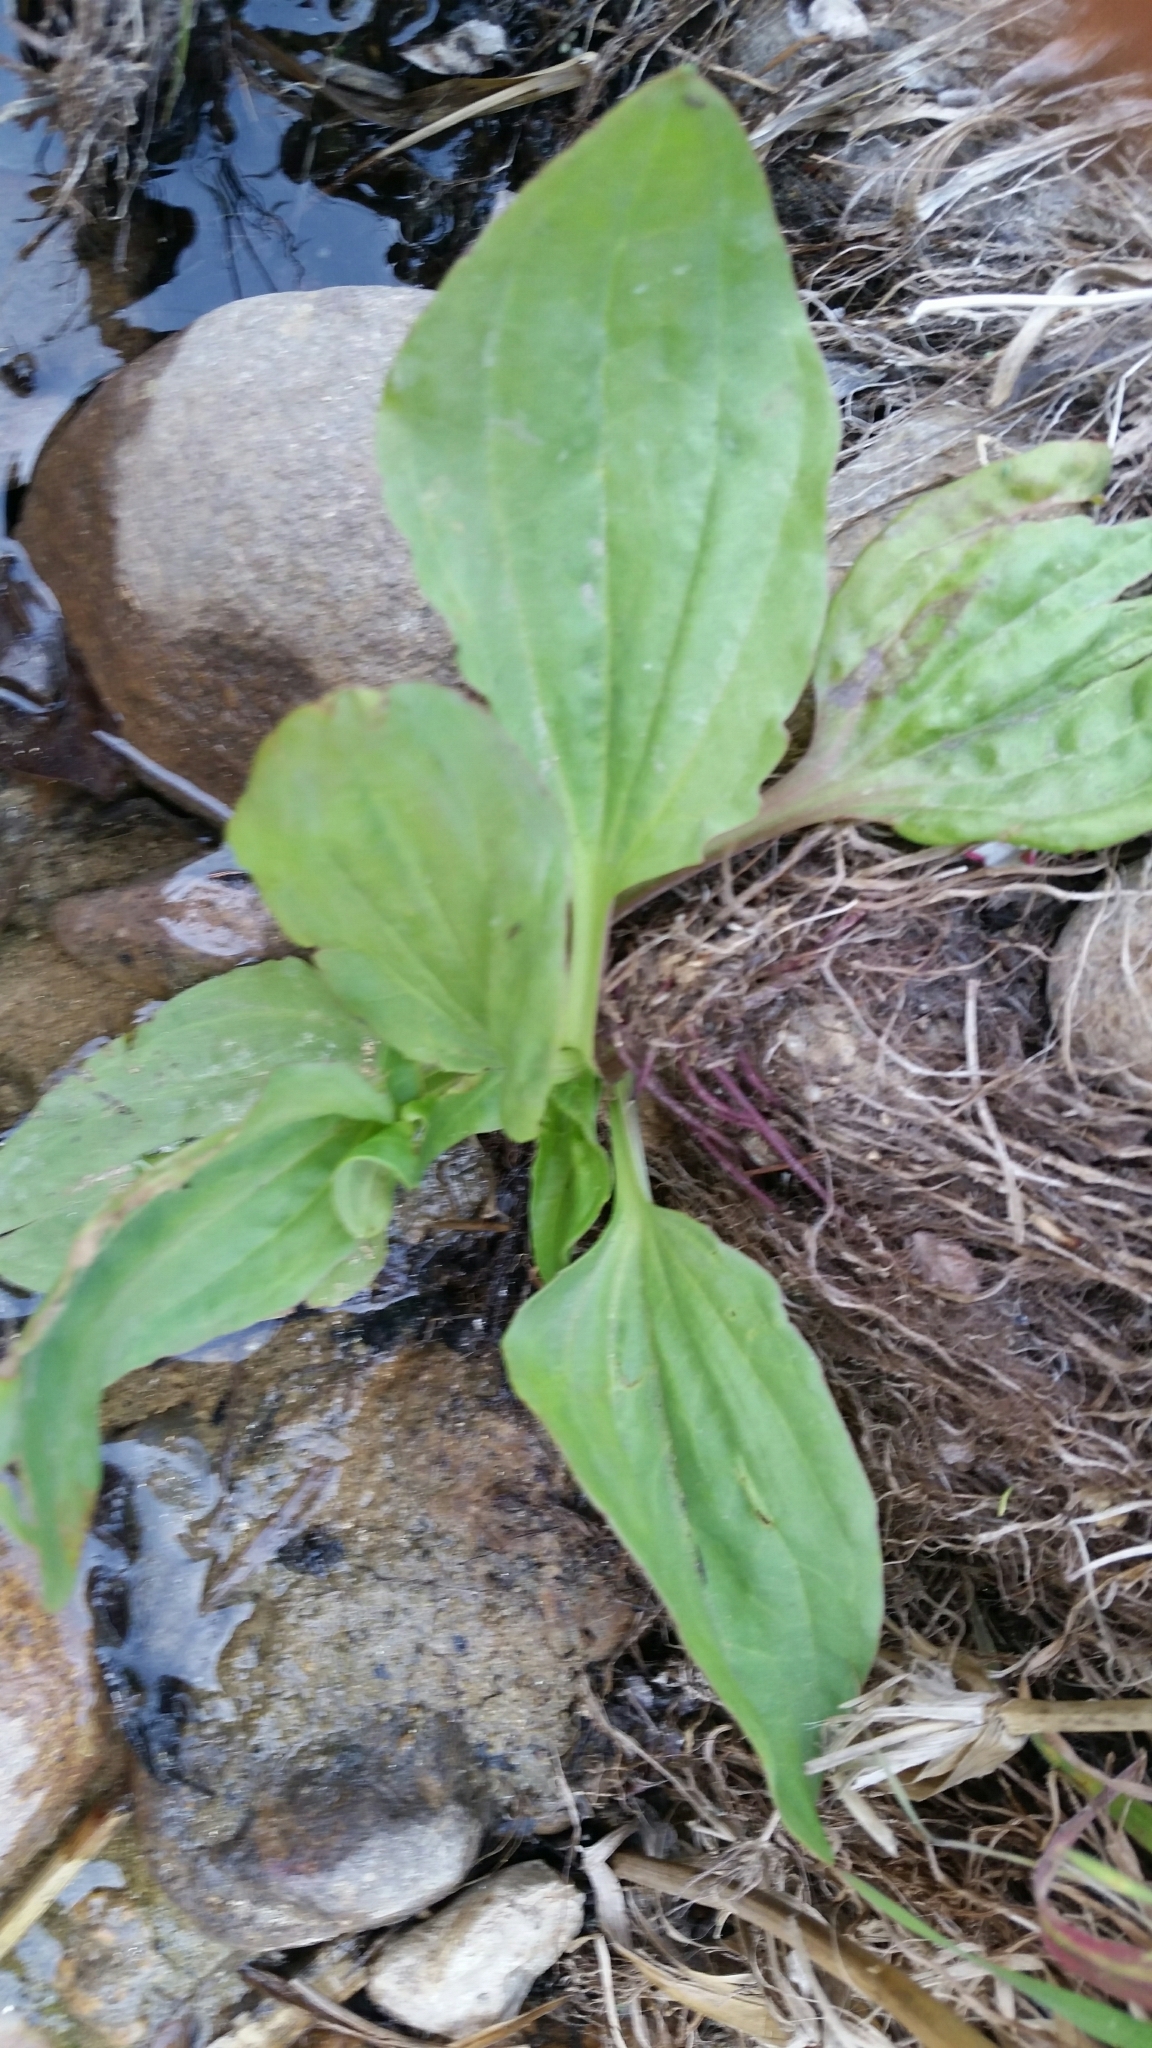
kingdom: Plantae
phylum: Tracheophyta
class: Magnoliopsida
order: Lamiales
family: Plantaginaceae
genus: Plantago
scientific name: Plantago major
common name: Common plantain
